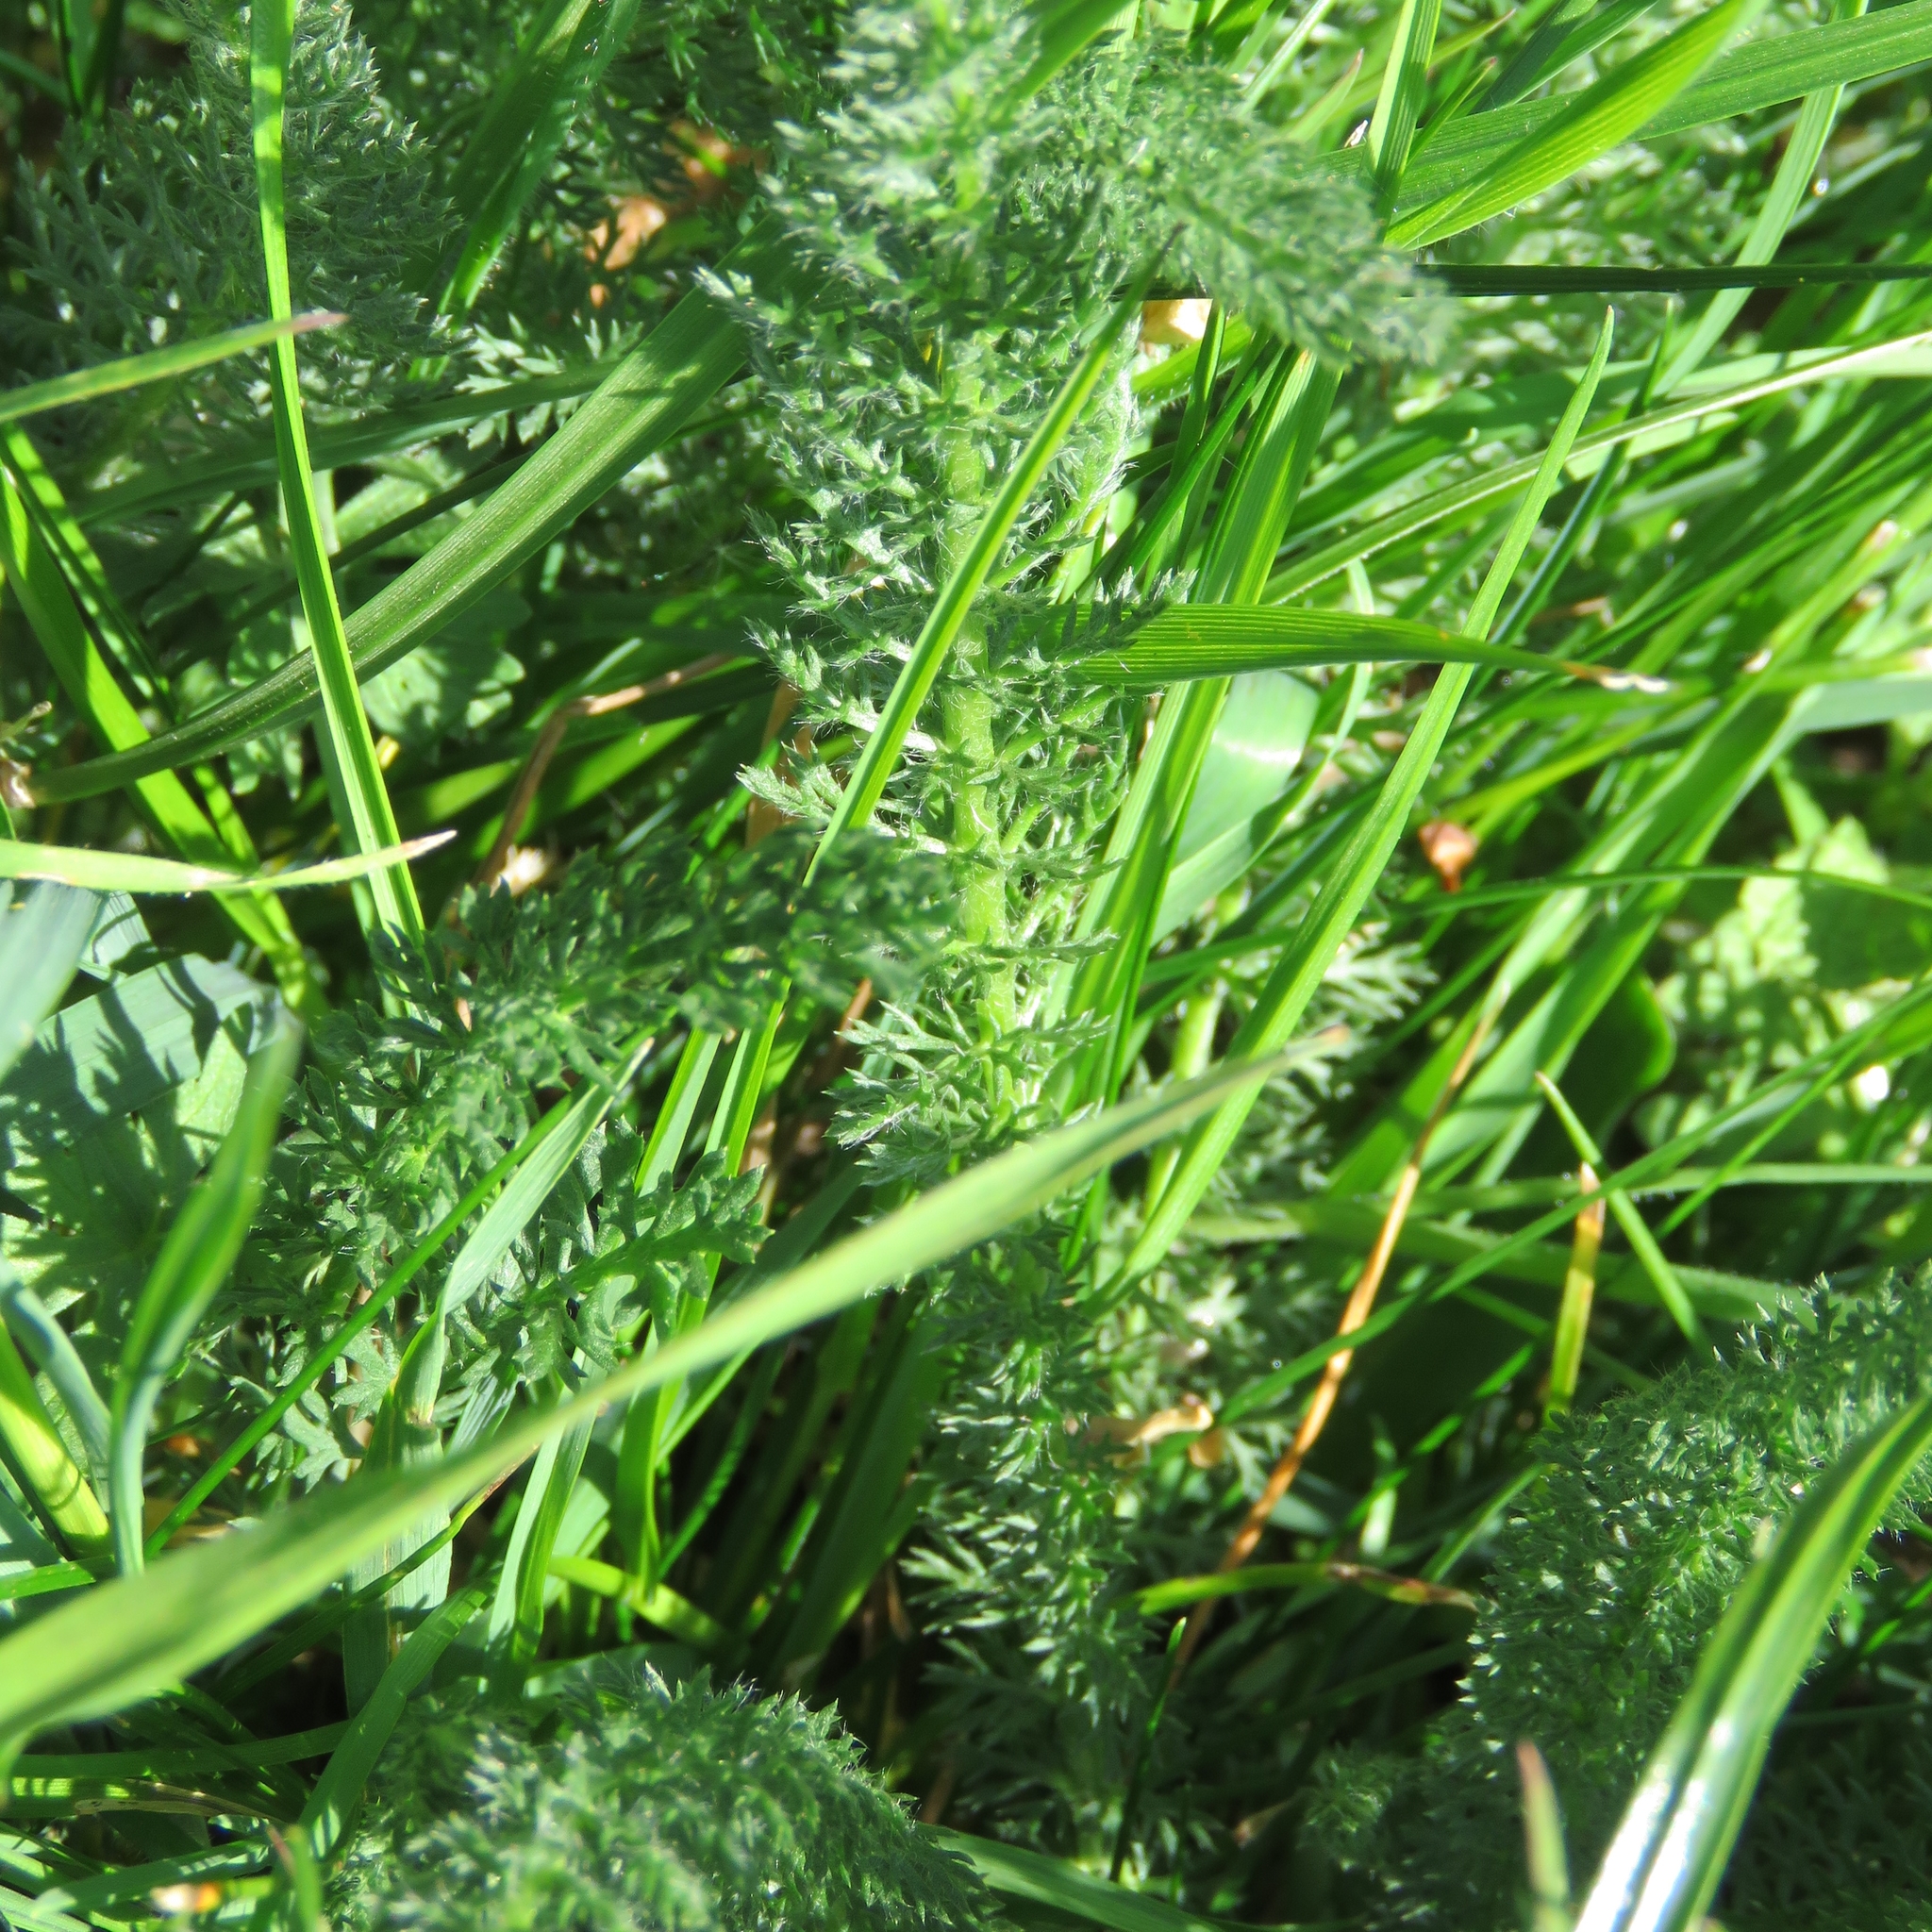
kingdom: Plantae
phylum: Tracheophyta
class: Magnoliopsida
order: Asterales
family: Asteraceae
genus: Achillea
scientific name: Achillea millefolium
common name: Yarrow
